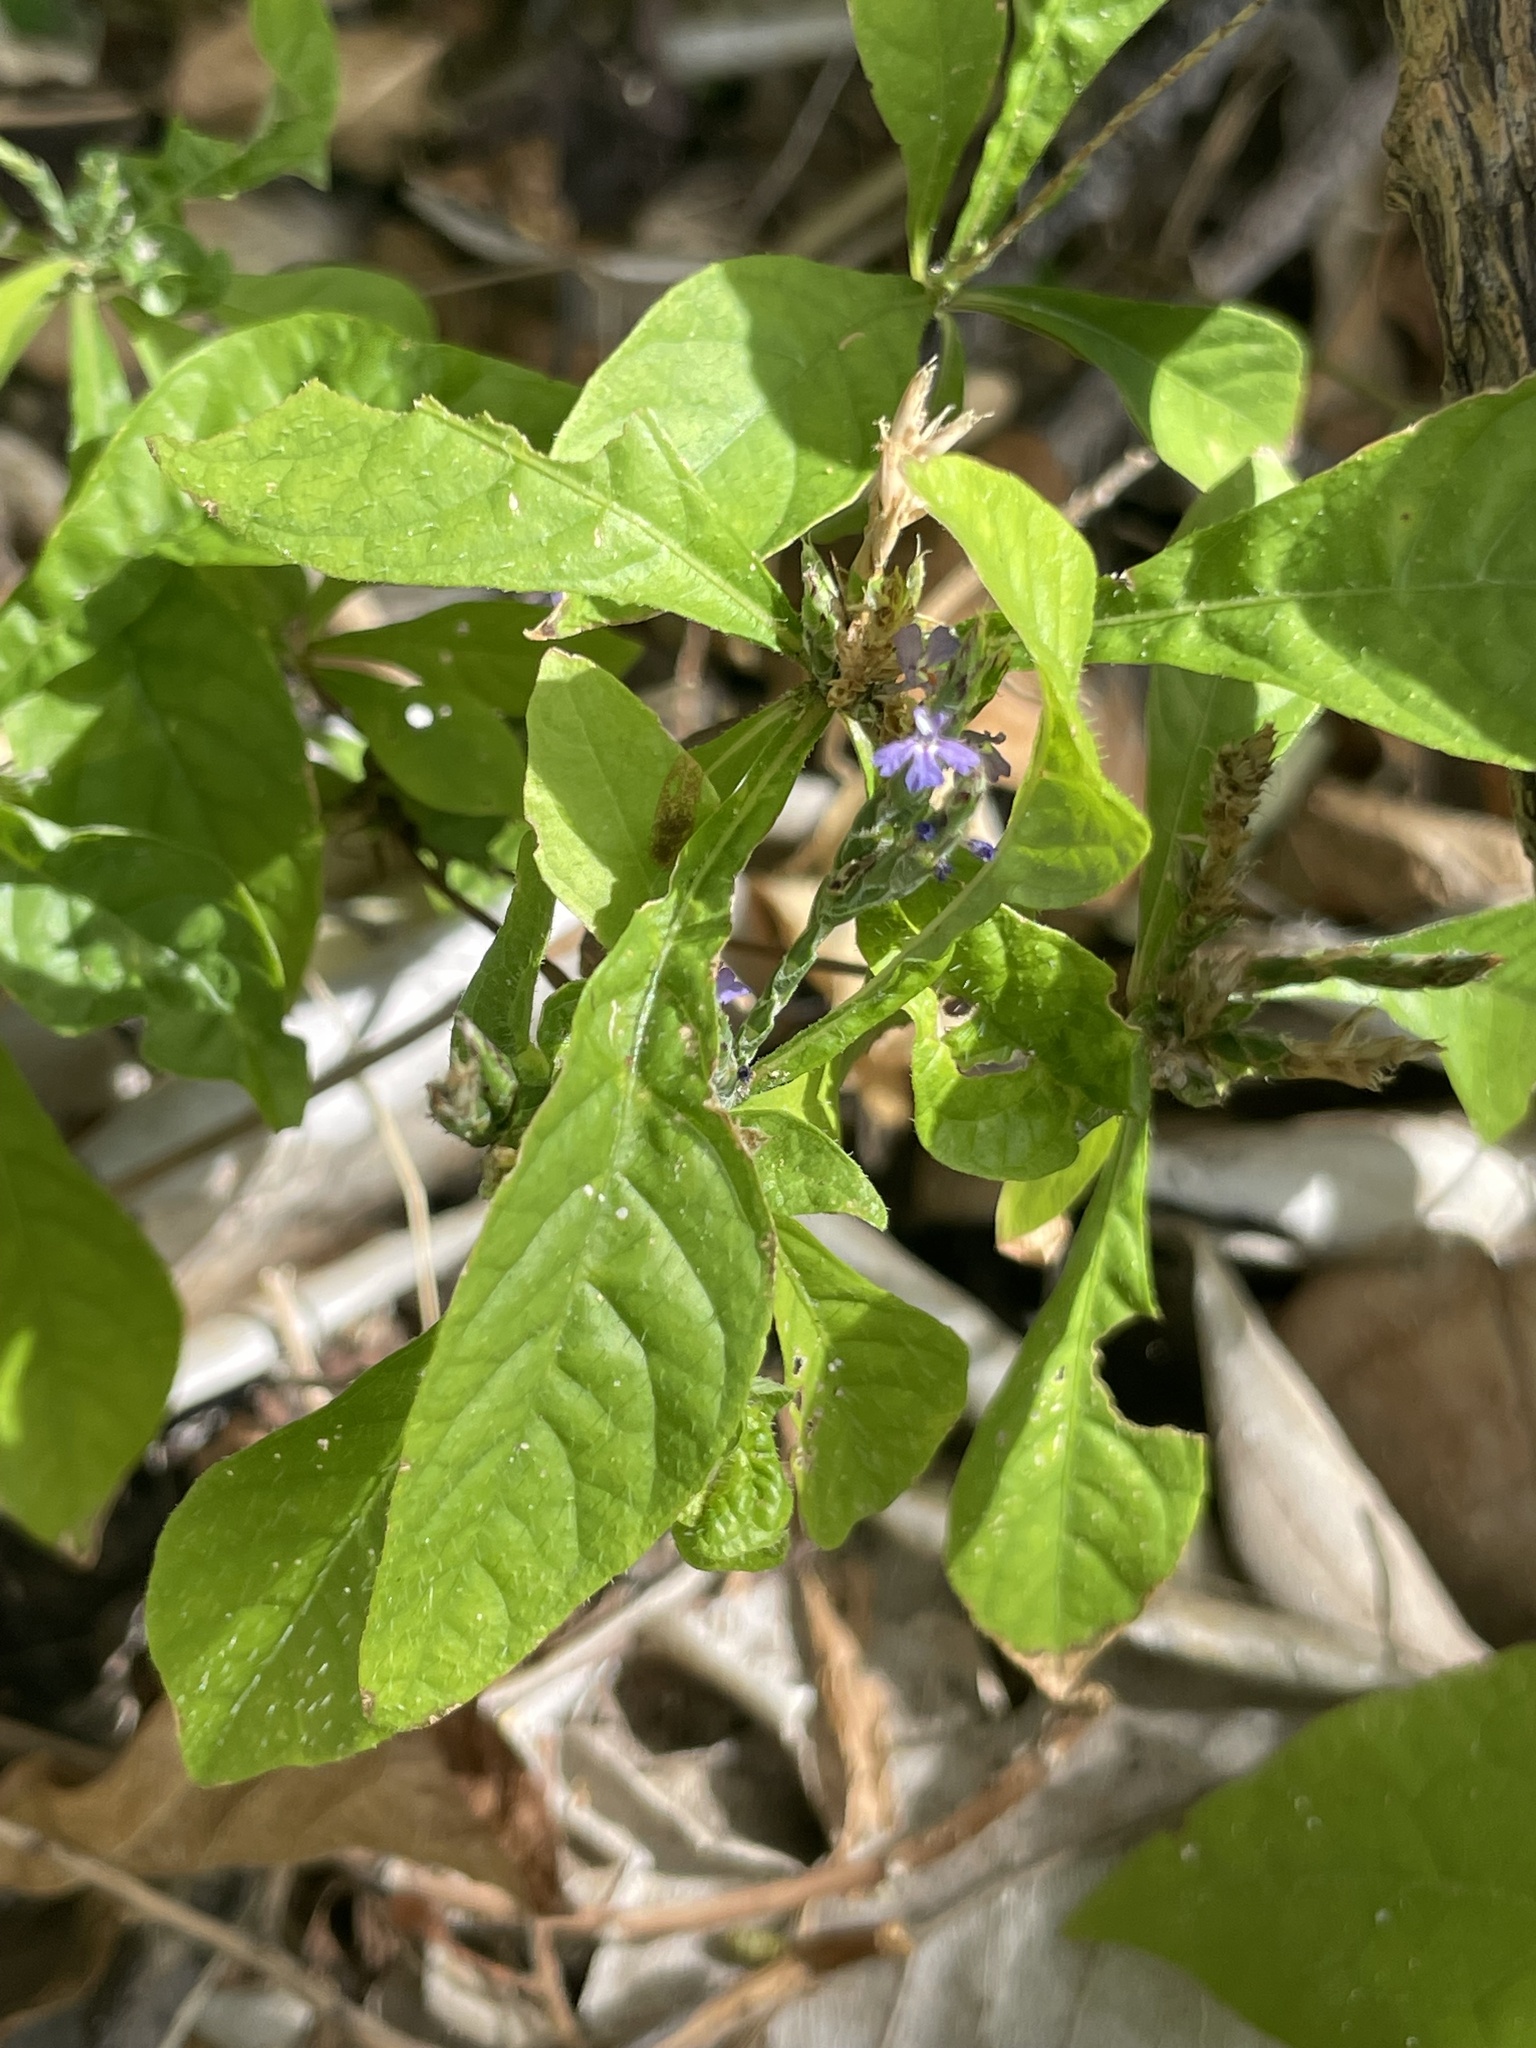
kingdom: Plantae
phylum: Tracheophyta
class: Magnoliopsida
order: Lamiales
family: Acanthaceae
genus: Elytraria
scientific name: Elytraria imbricata
